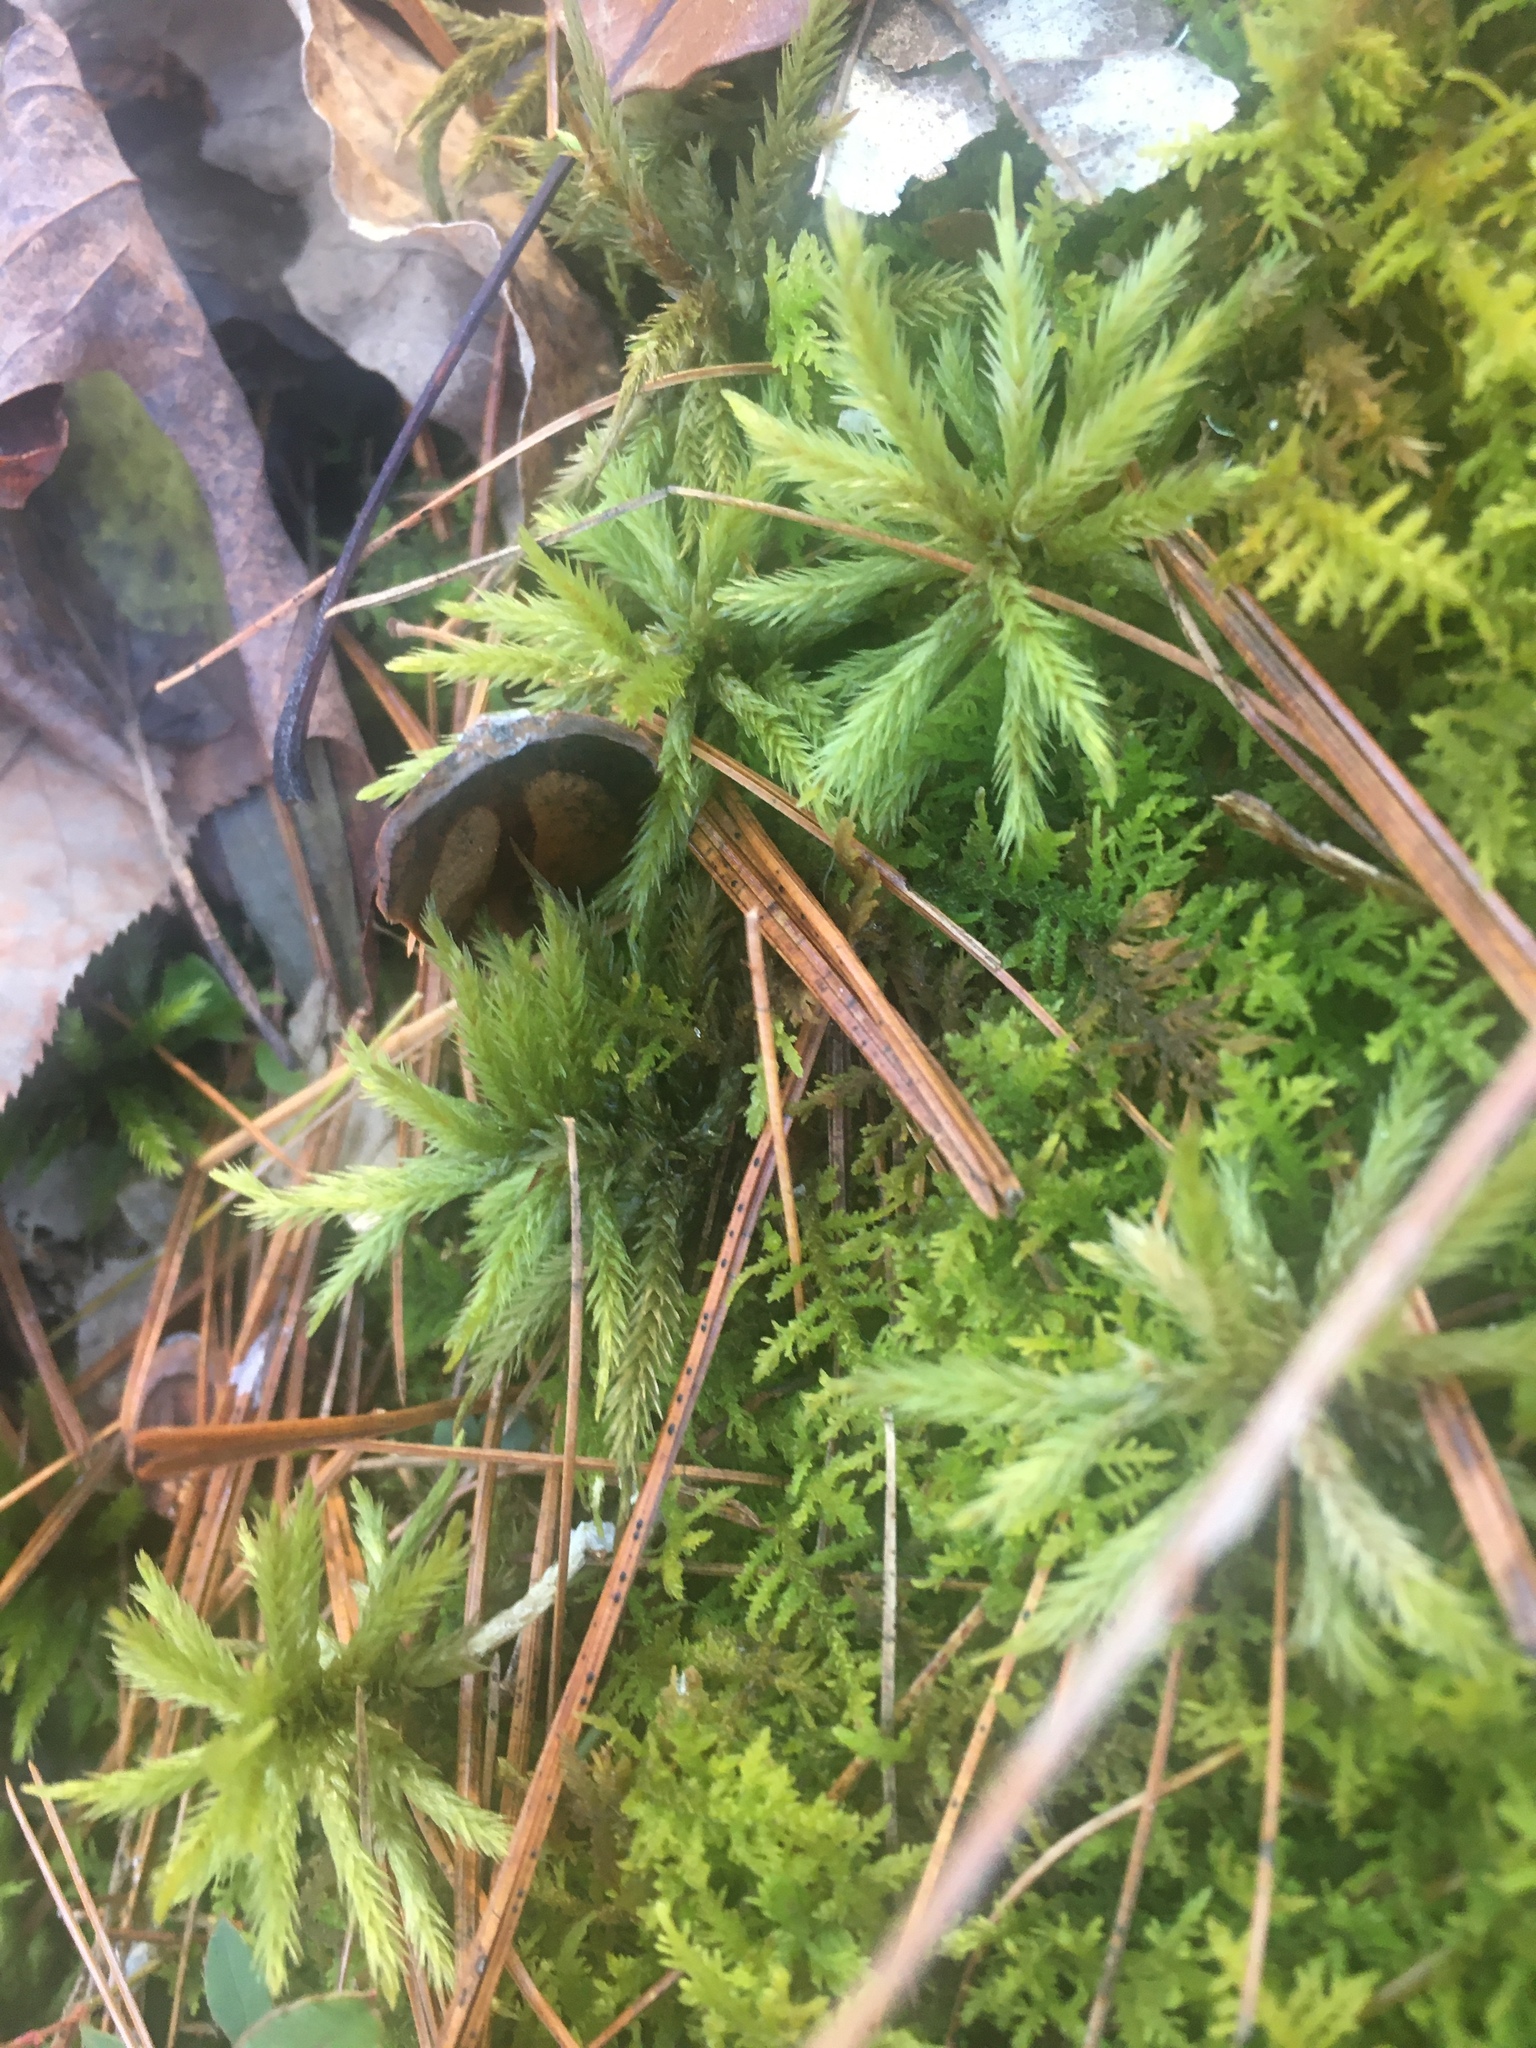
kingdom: Plantae
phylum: Bryophyta
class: Bryopsida
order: Hypnales
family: Climaciaceae
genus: Climacium
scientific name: Climacium americanum
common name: American tree moss
